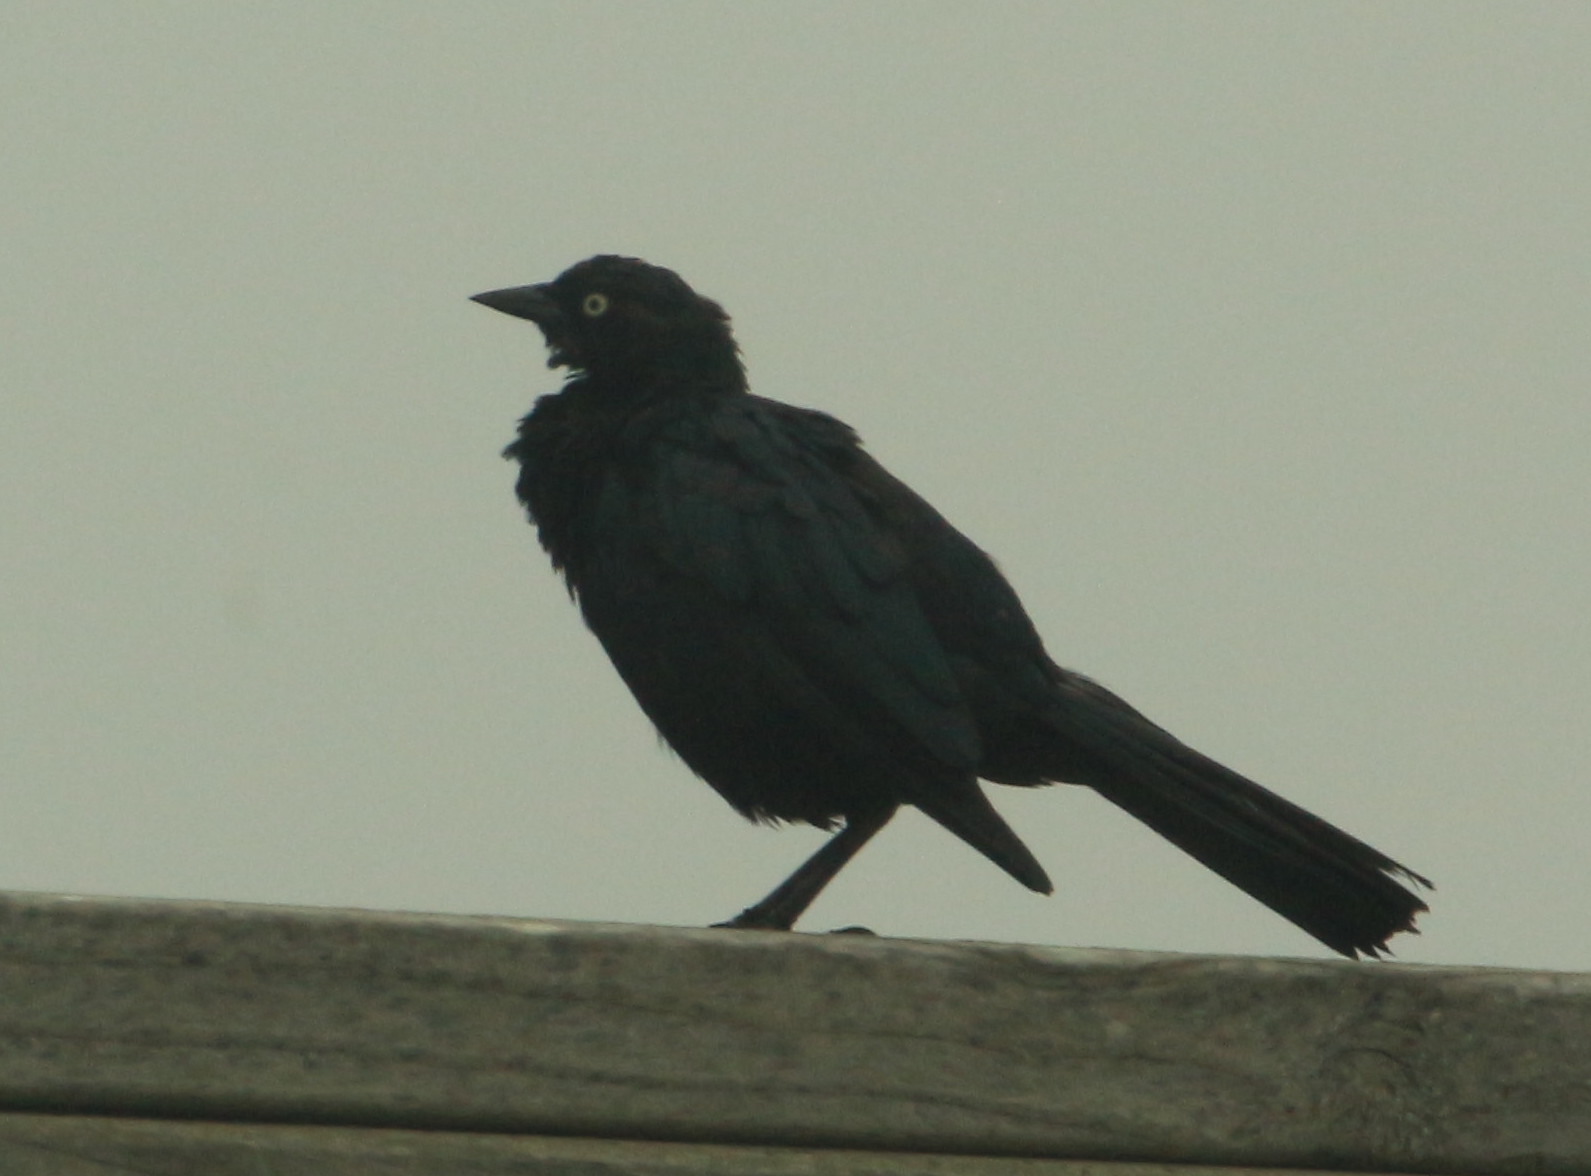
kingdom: Animalia
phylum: Chordata
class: Aves
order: Passeriformes
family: Icteridae
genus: Euphagus
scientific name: Euphagus cyanocephalus
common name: Brewer's blackbird
